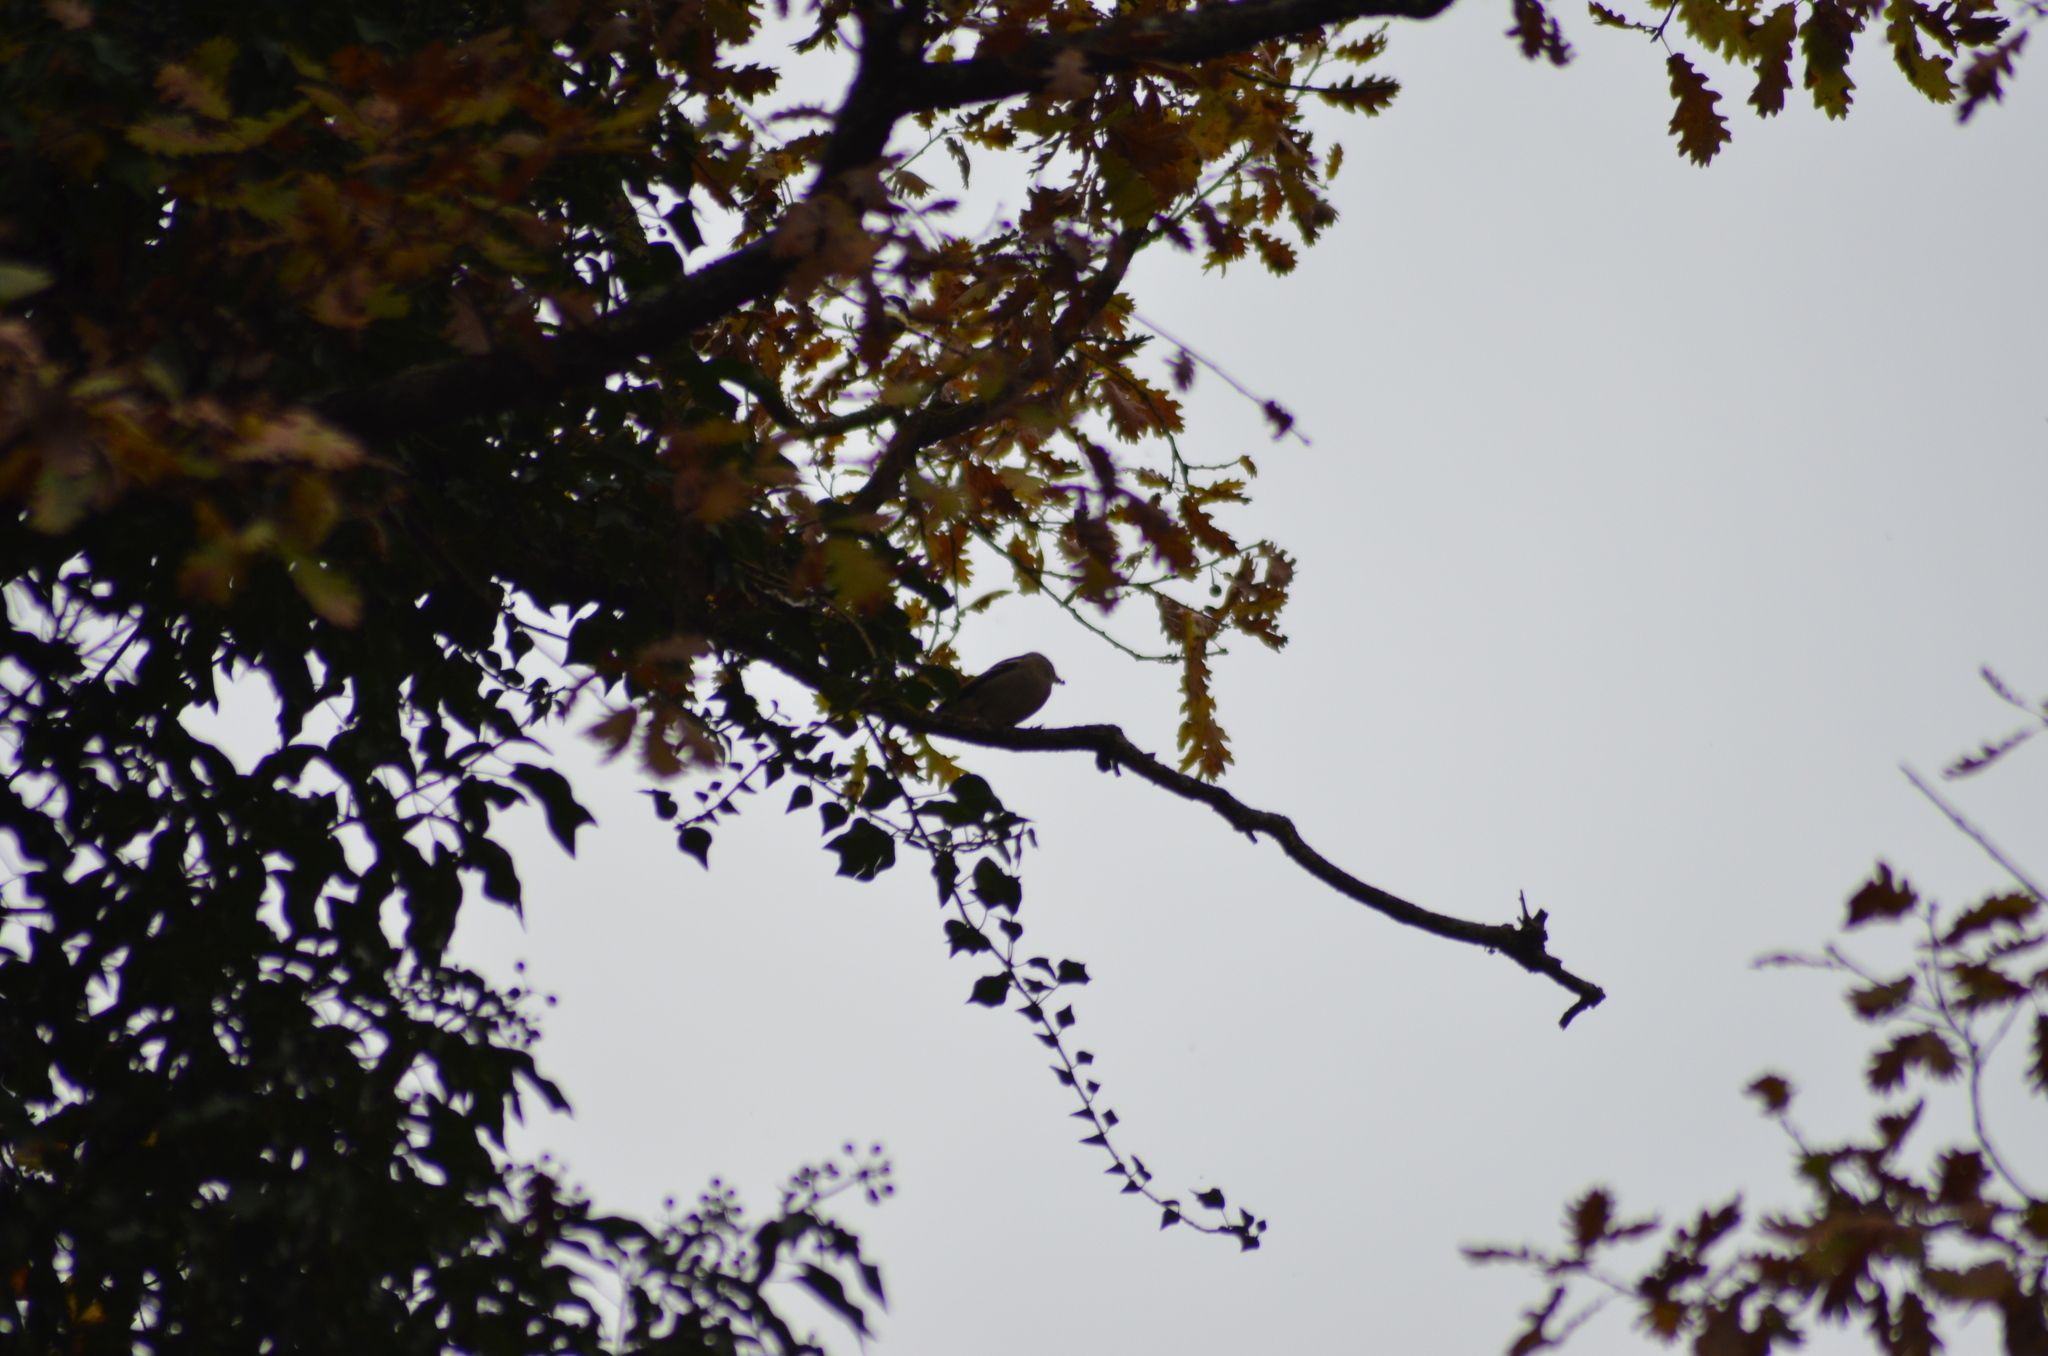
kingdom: Animalia
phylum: Chordata
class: Aves
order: Passeriformes
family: Fringillidae
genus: Fringilla
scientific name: Fringilla coelebs
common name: Common chaffinch
